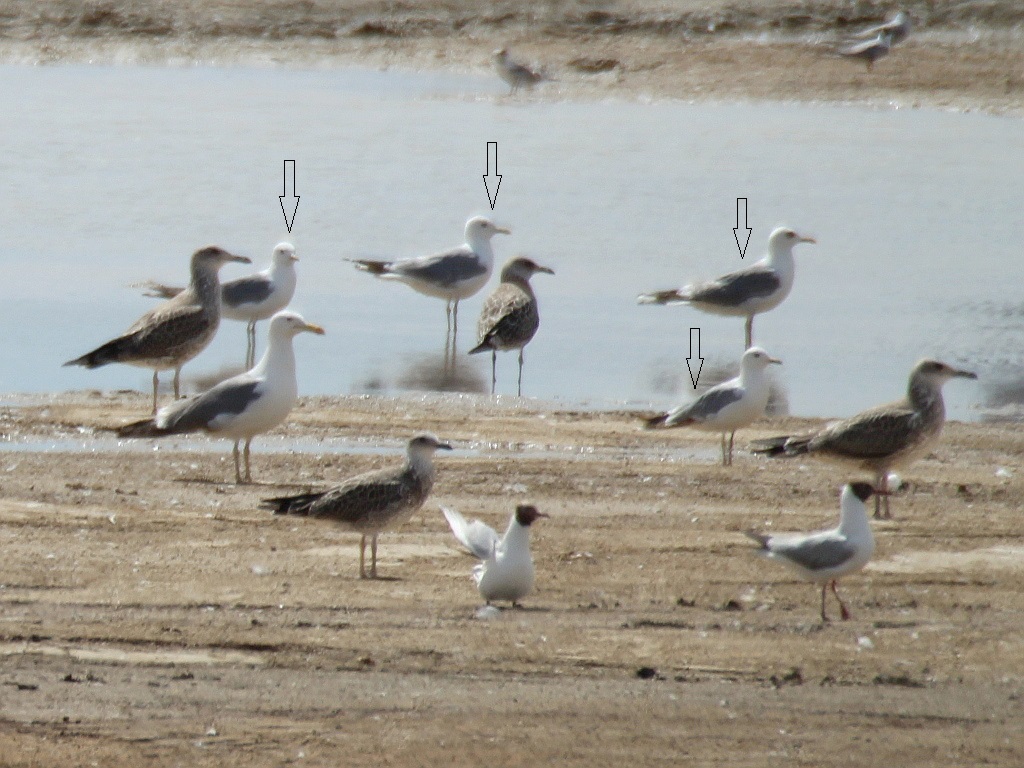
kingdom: Animalia
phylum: Chordata
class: Aves
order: Charadriiformes
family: Laridae
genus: Larus
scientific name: Larus canus
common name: Mew gull
